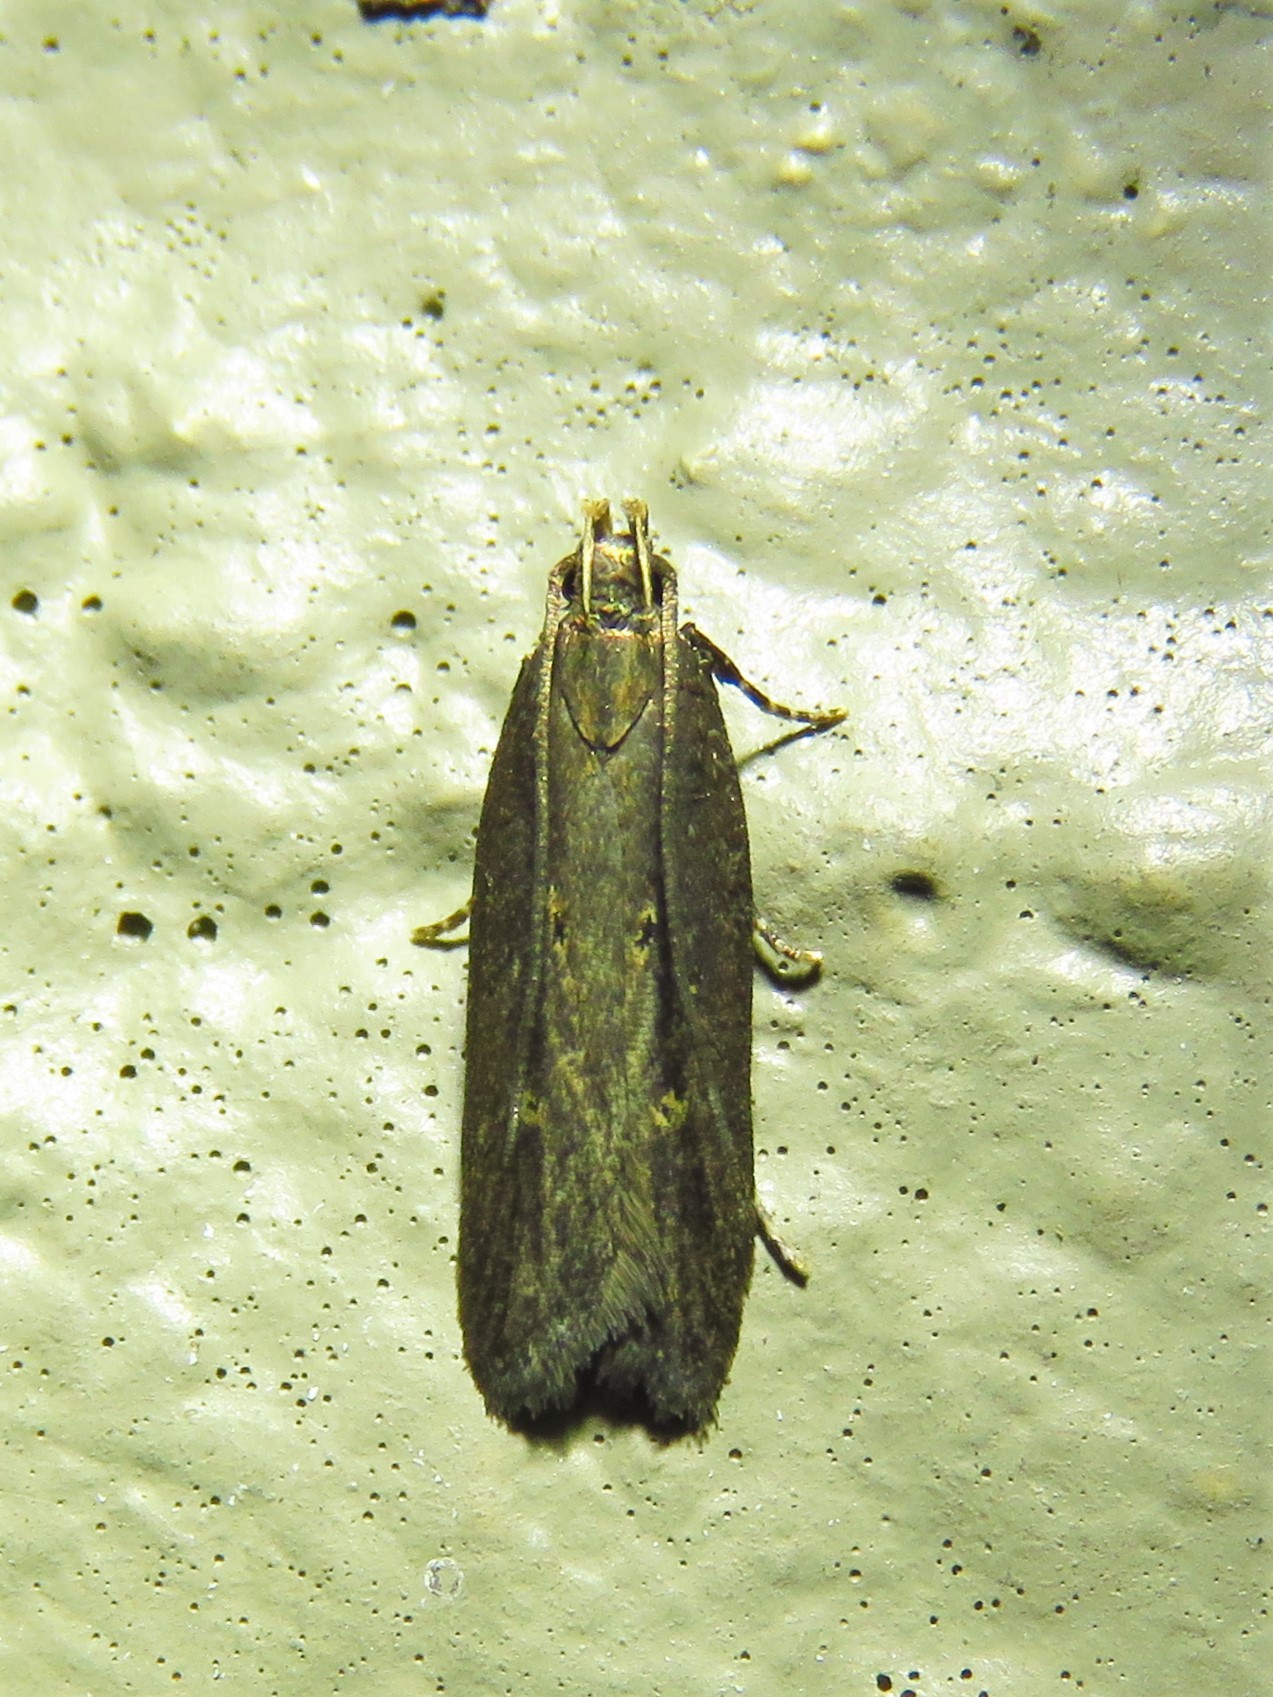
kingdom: Animalia
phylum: Arthropoda
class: Insecta
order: Lepidoptera
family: Gelechiidae
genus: Chionodes
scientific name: Chionodes discoocellella
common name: Eye-ringed chionodes moth
